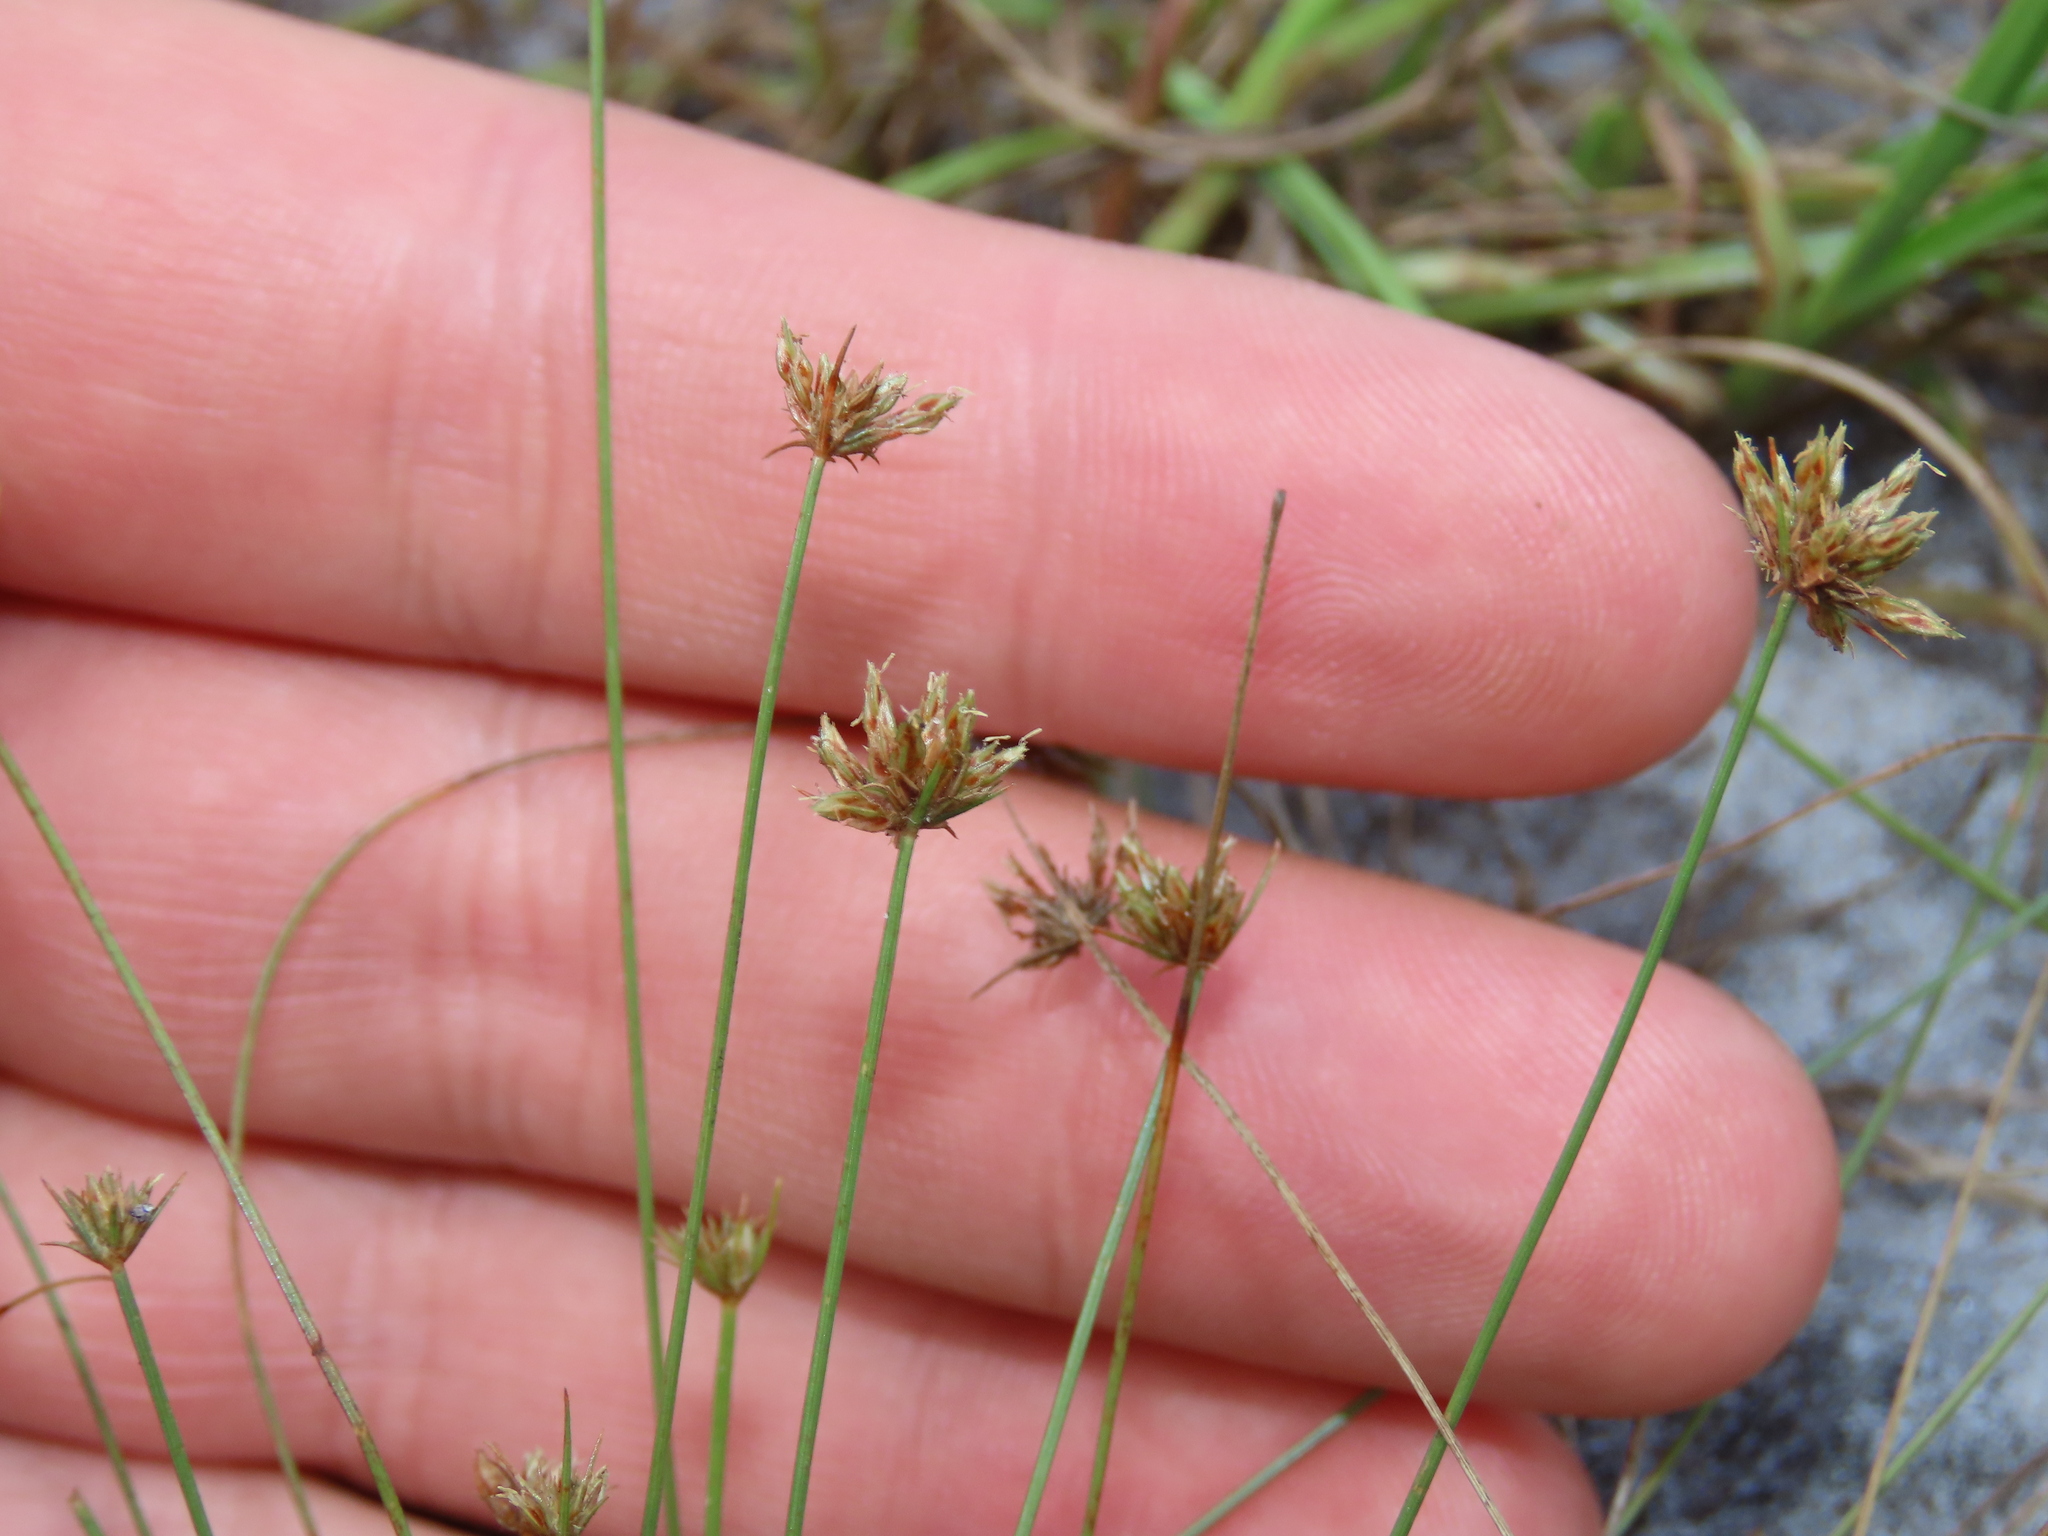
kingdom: Plantae
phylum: Tracheophyta
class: Liliopsida
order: Poales
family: Cyperaceae
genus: Bulbostylis
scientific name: Bulbostylis barbata
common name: Watergrass
